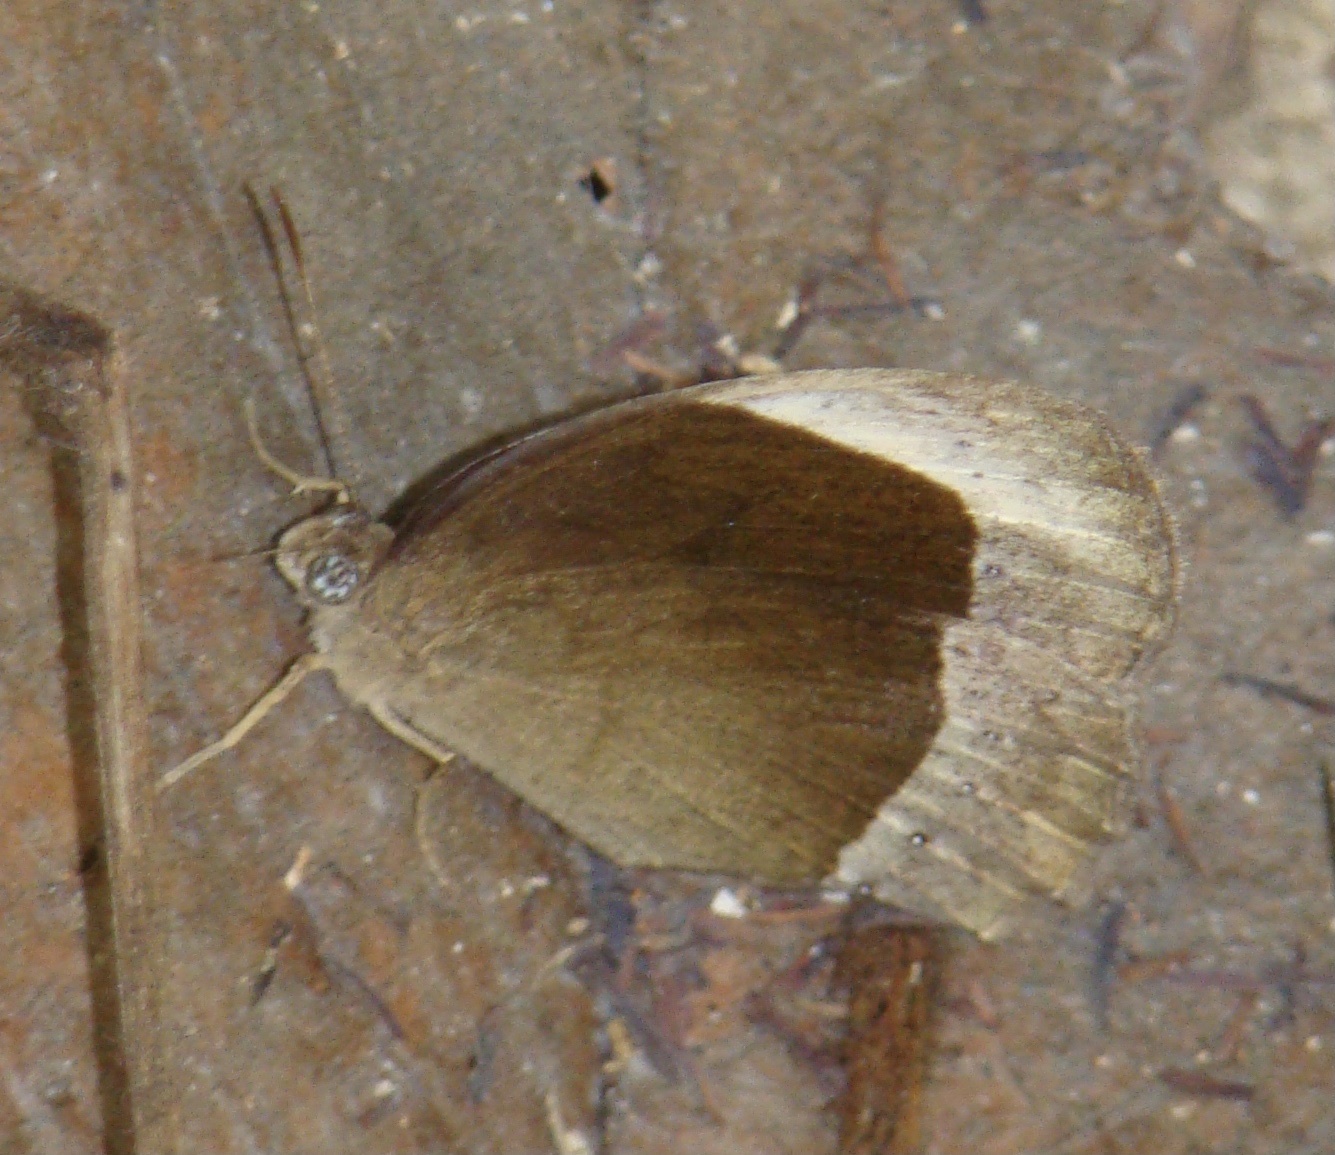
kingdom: Animalia
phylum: Arthropoda
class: Insecta
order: Lepidoptera
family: Nymphalidae
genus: Mycalesis
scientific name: Mycalesis adamsoni
